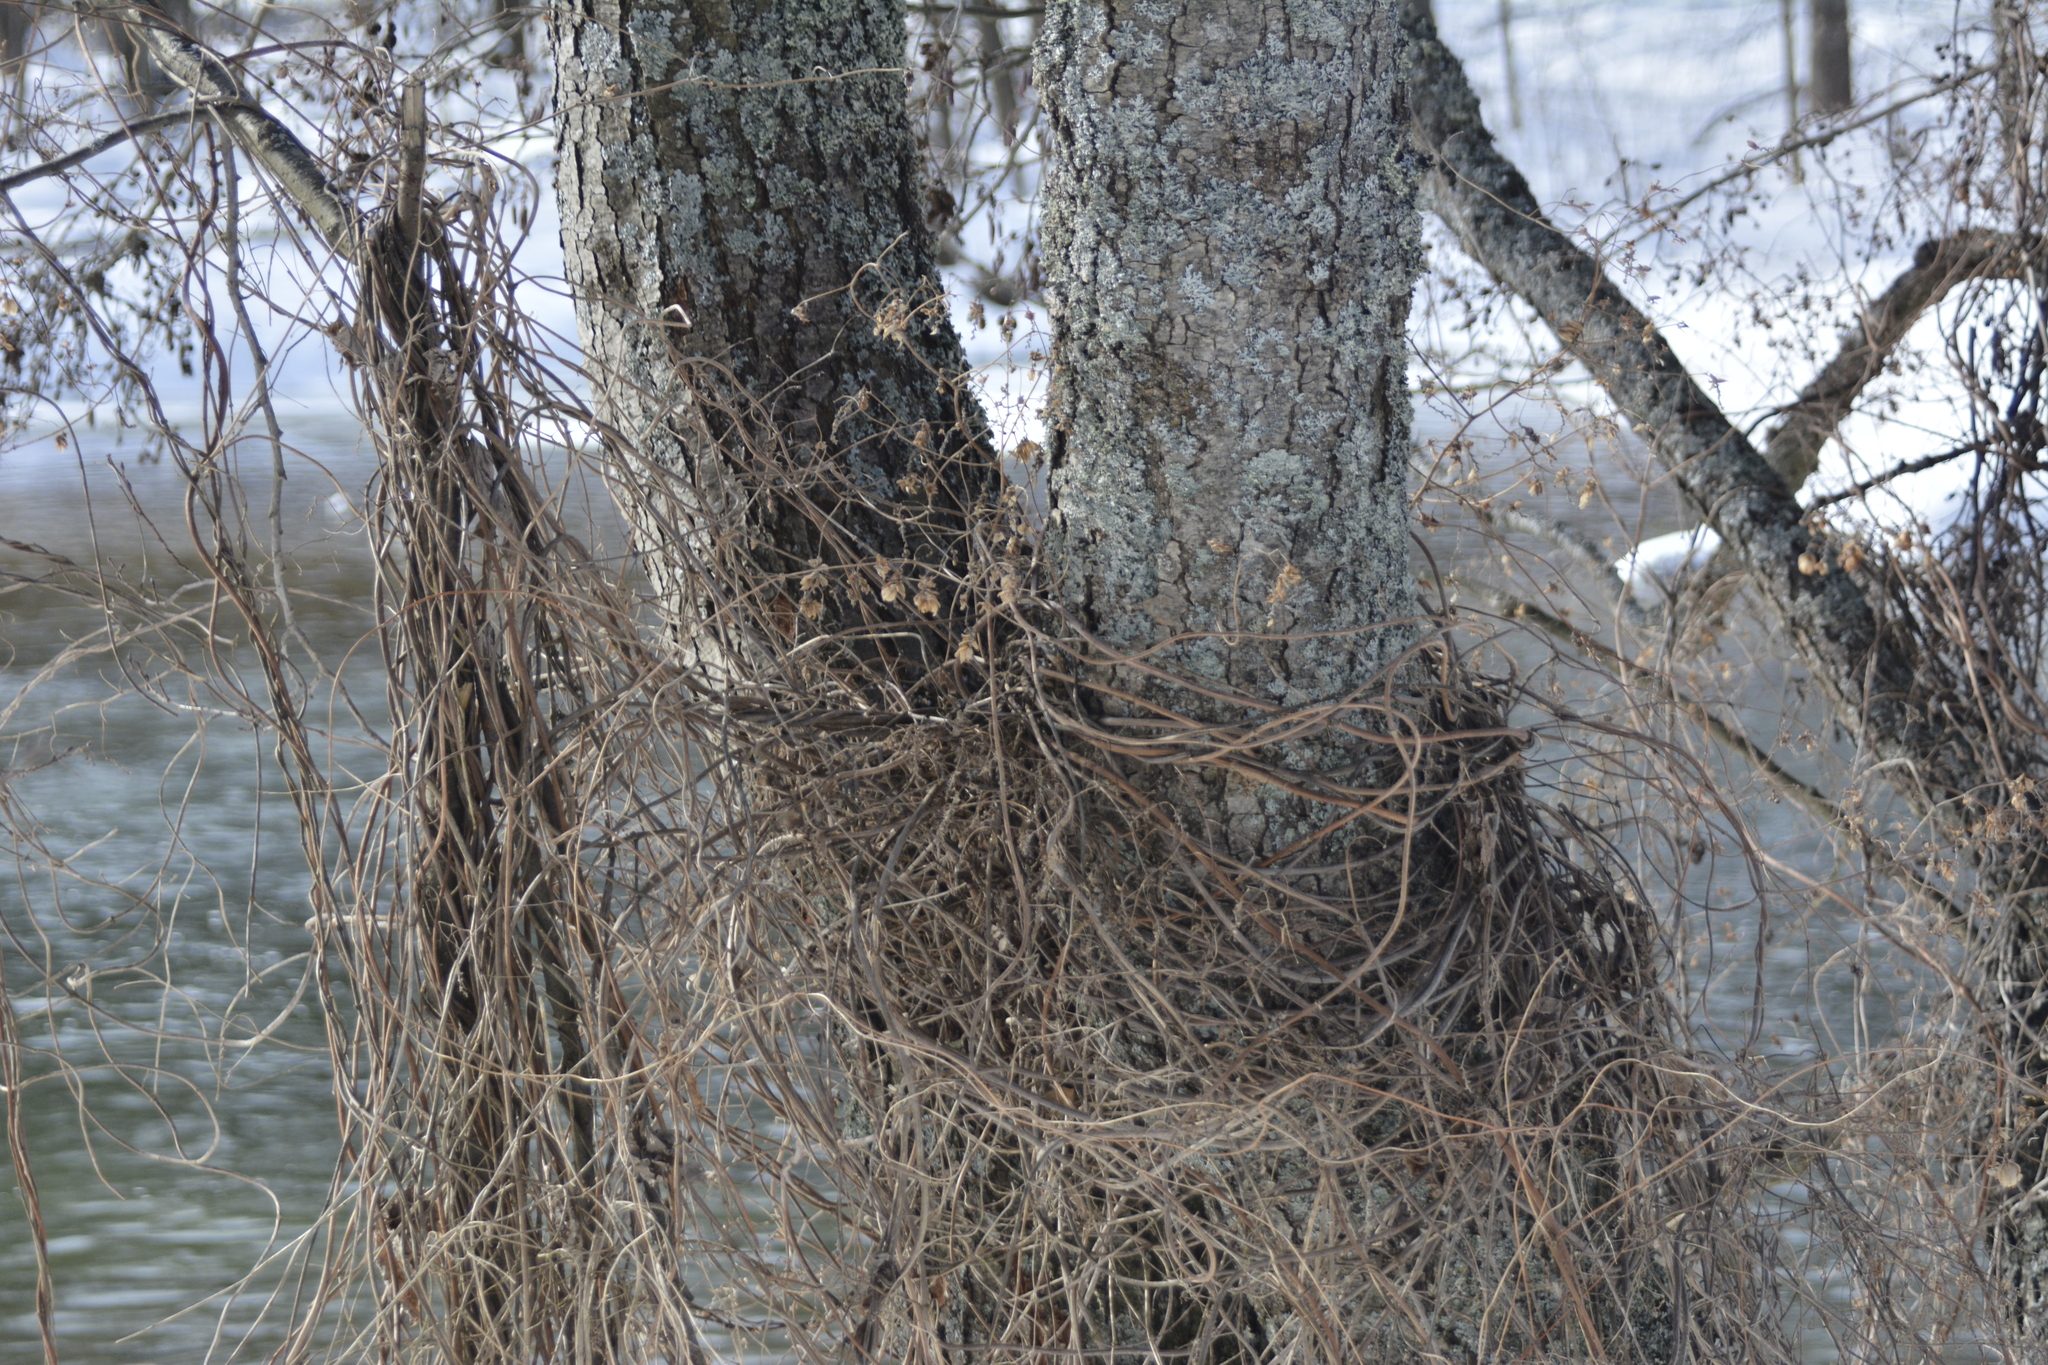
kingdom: Plantae
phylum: Tracheophyta
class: Magnoliopsida
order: Rosales
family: Cannabaceae
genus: Humulus
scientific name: Humulus lupulus
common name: Hop
